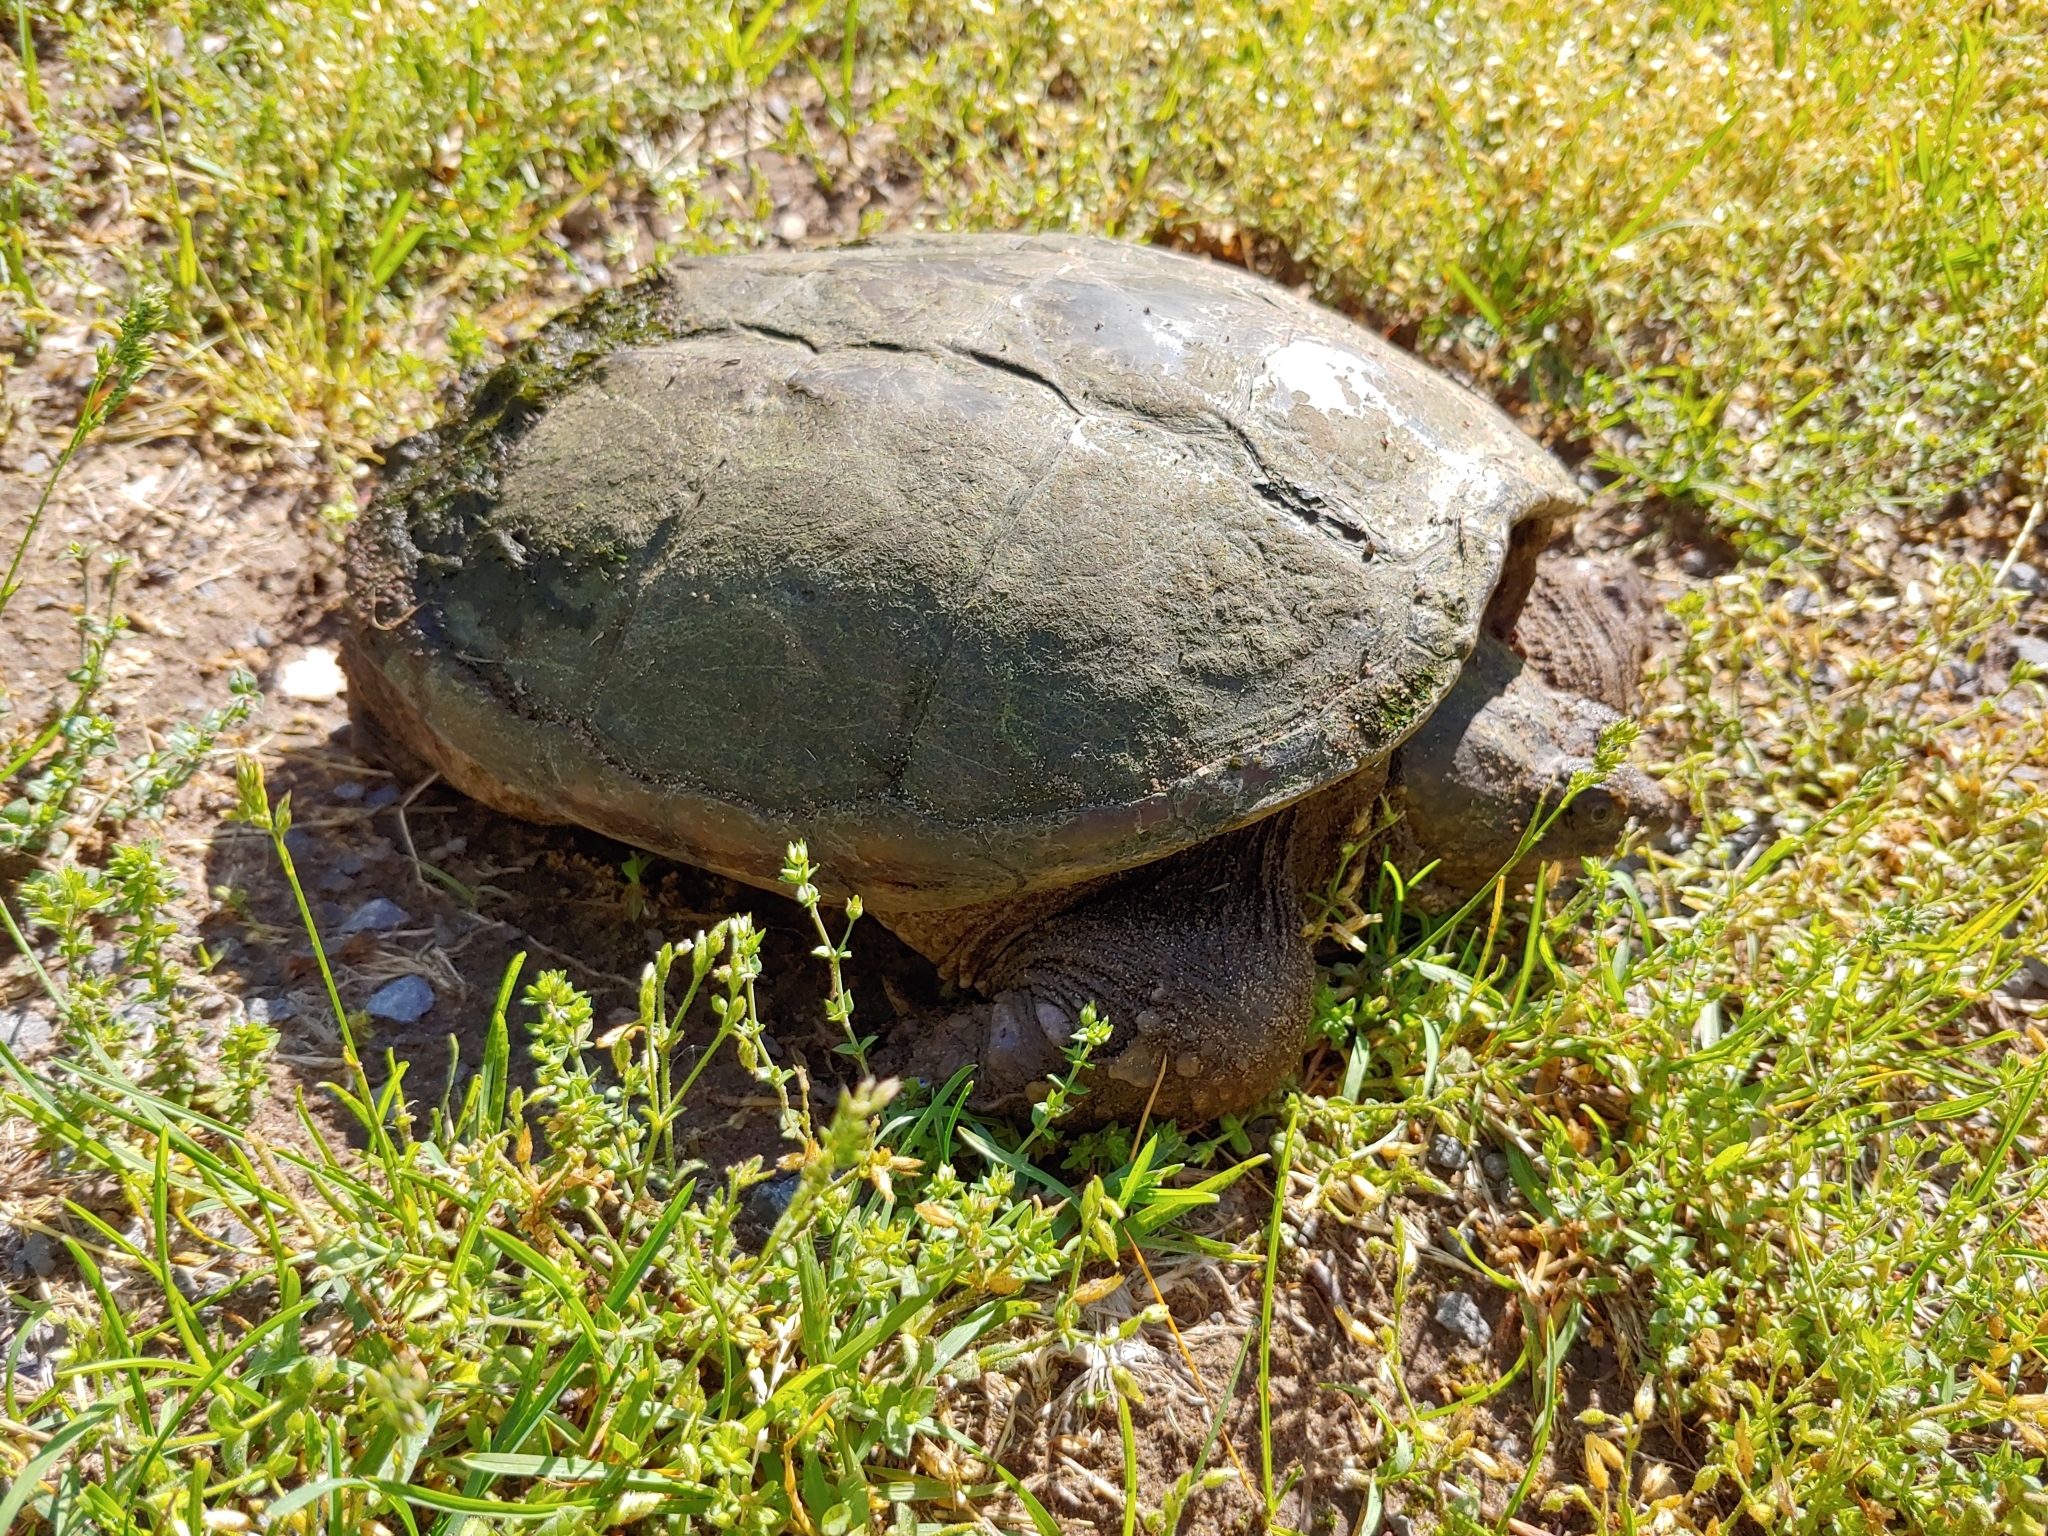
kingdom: Animalia
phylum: Chordata
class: Testudines
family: Chelydridae
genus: Chelydra
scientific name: Chelydra serpentina
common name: Common snapping turtle
